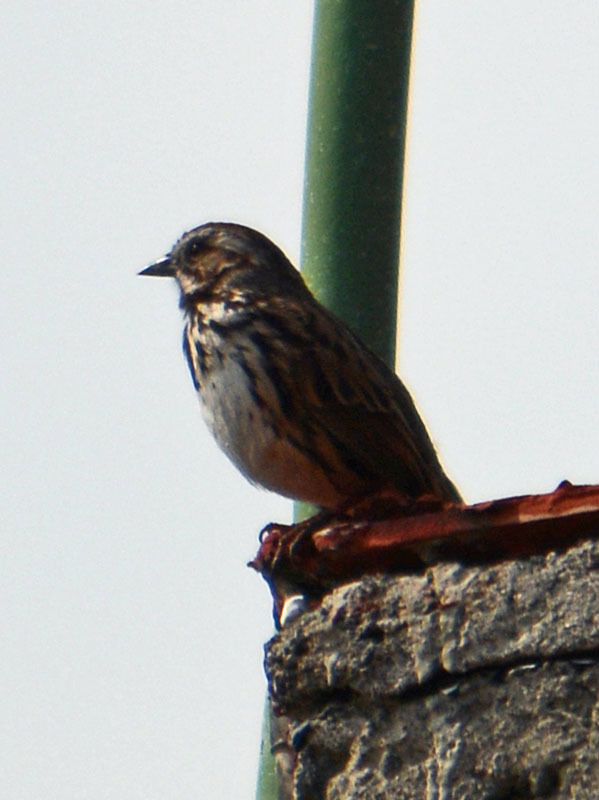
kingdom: Animalia
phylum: Chordata
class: Aves
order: Passeriformes
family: Passerellidae
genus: Melospiza
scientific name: Melospiza melodia
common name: Song sparrow
